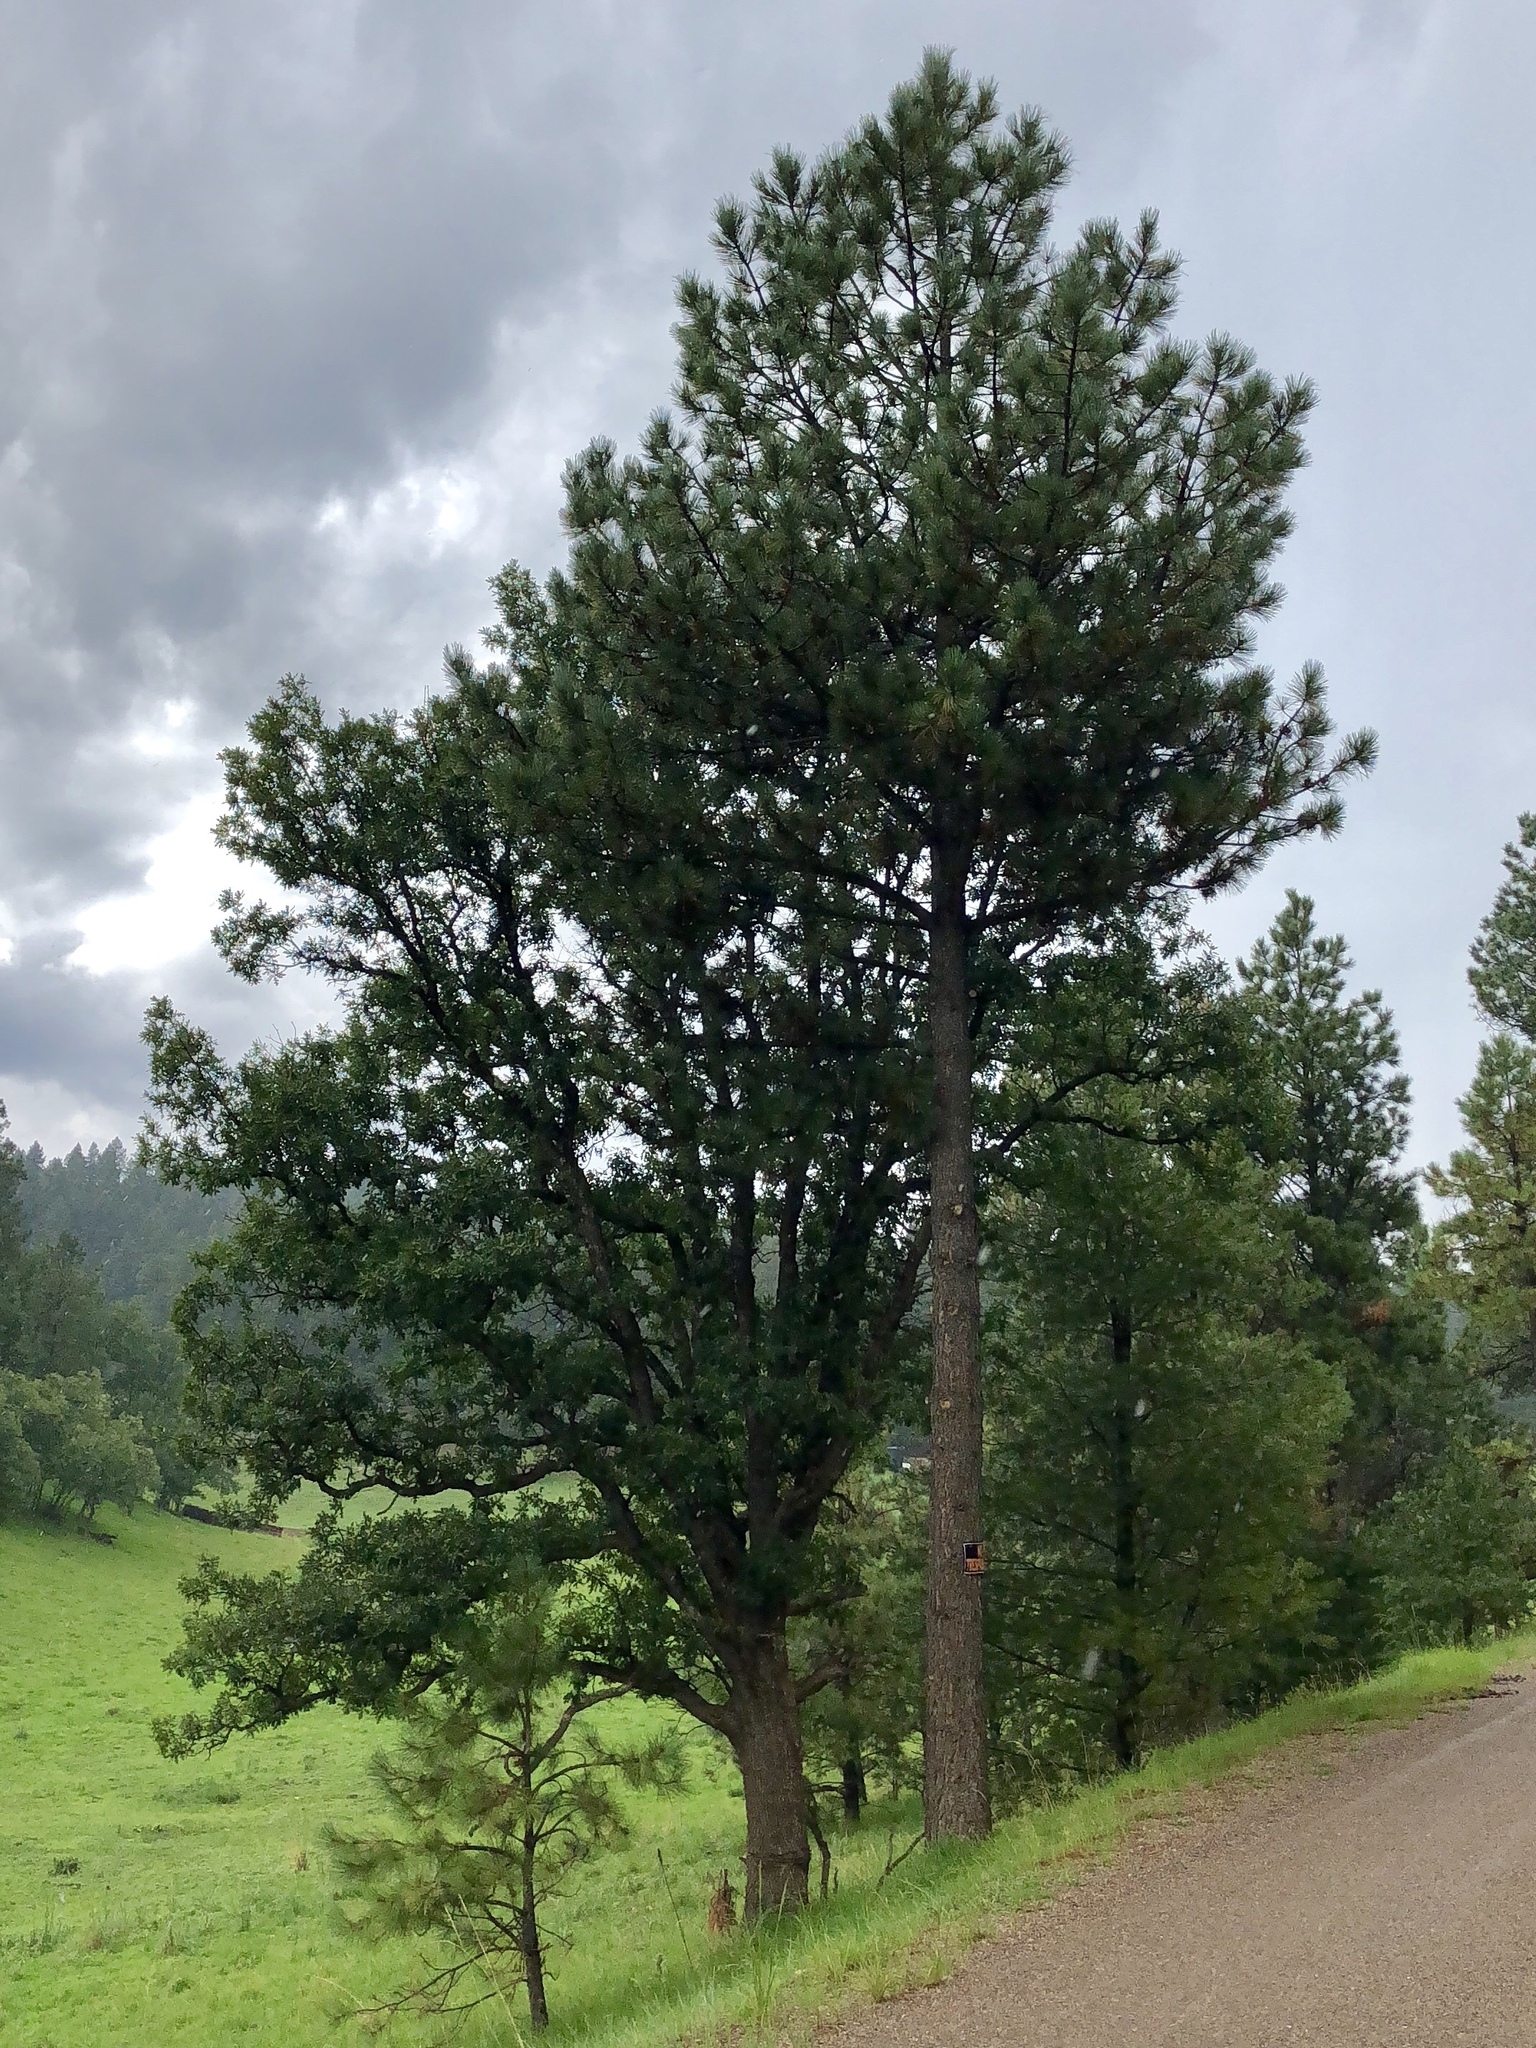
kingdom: Plantae
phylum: Tracheophyta
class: Pinopsida
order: Pinales
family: Pinaceae
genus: Pinus
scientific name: Pinus ponderosa
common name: Western yellow-pine
